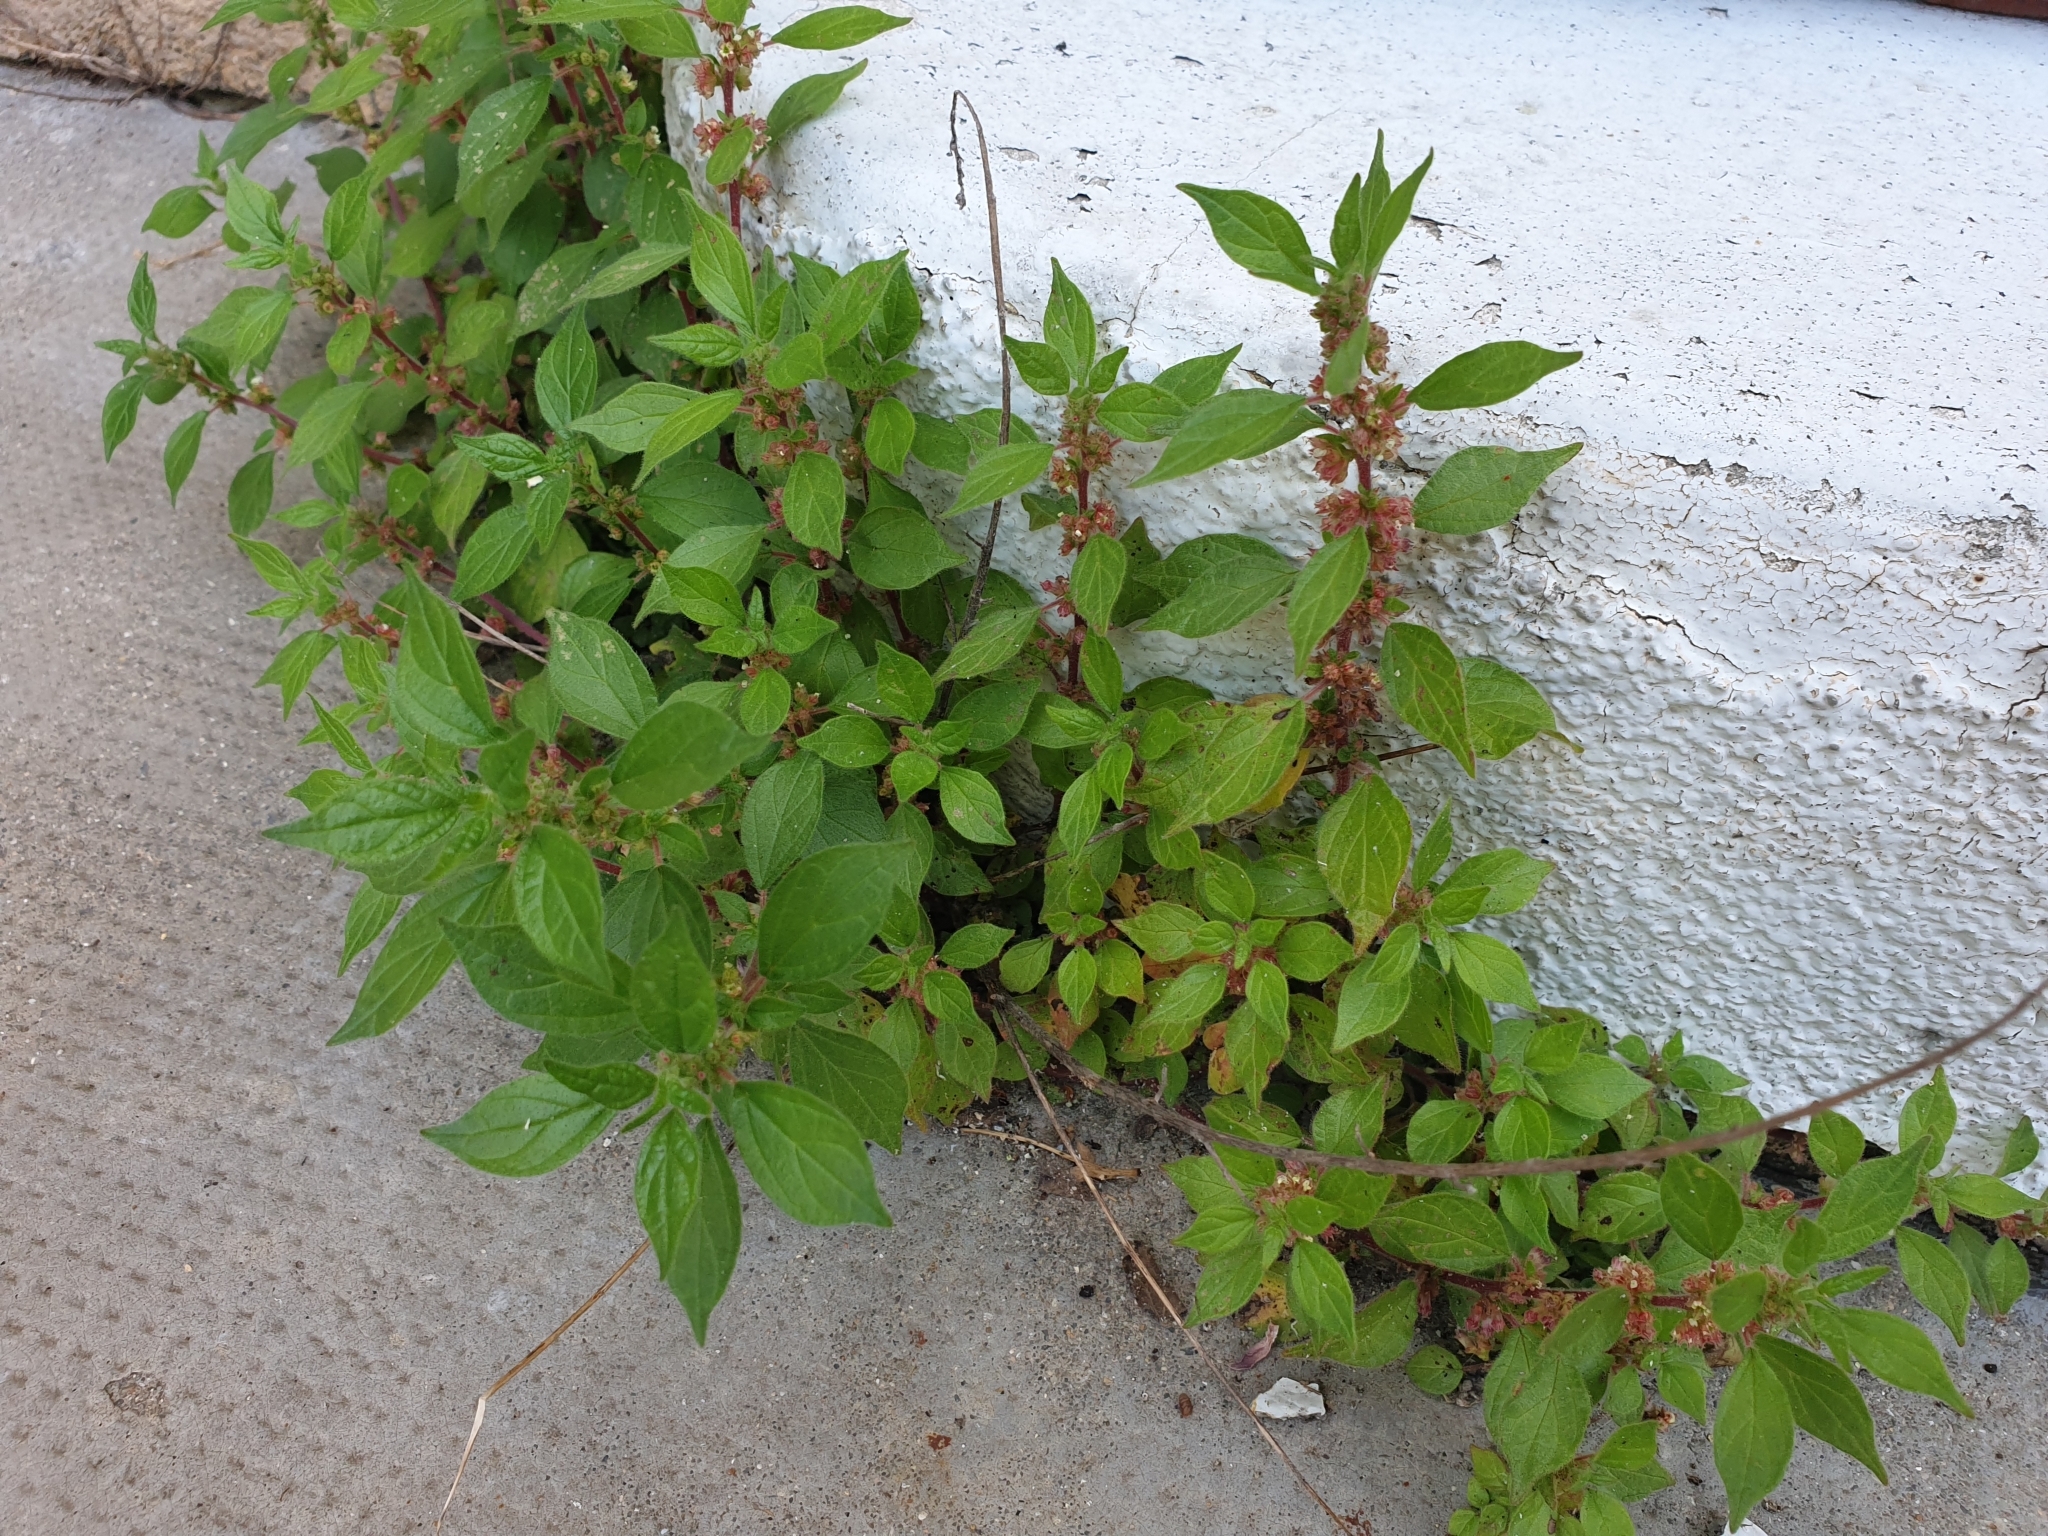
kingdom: Plantae
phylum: Tracheophyta
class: Magnoliopsida
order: Rosales
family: Urticaceae
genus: Parietaria
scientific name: Parietaria judaica
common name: Pellitory-of-the-wall
